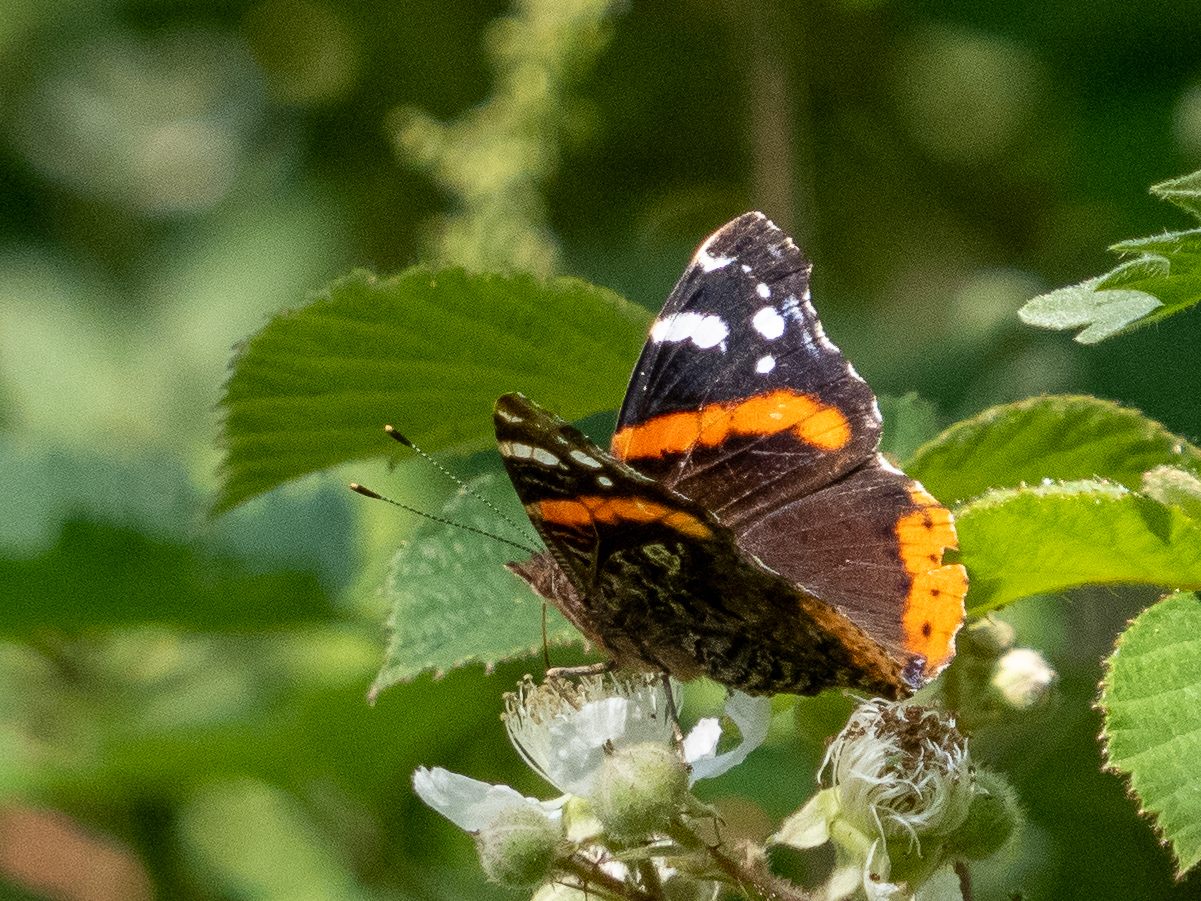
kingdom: Animalia
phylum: Arthropoda
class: Insecta
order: Lepidoptera
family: Nymphalidae
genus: Vanessa
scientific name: Vanessa atalanta
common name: Red admiral
